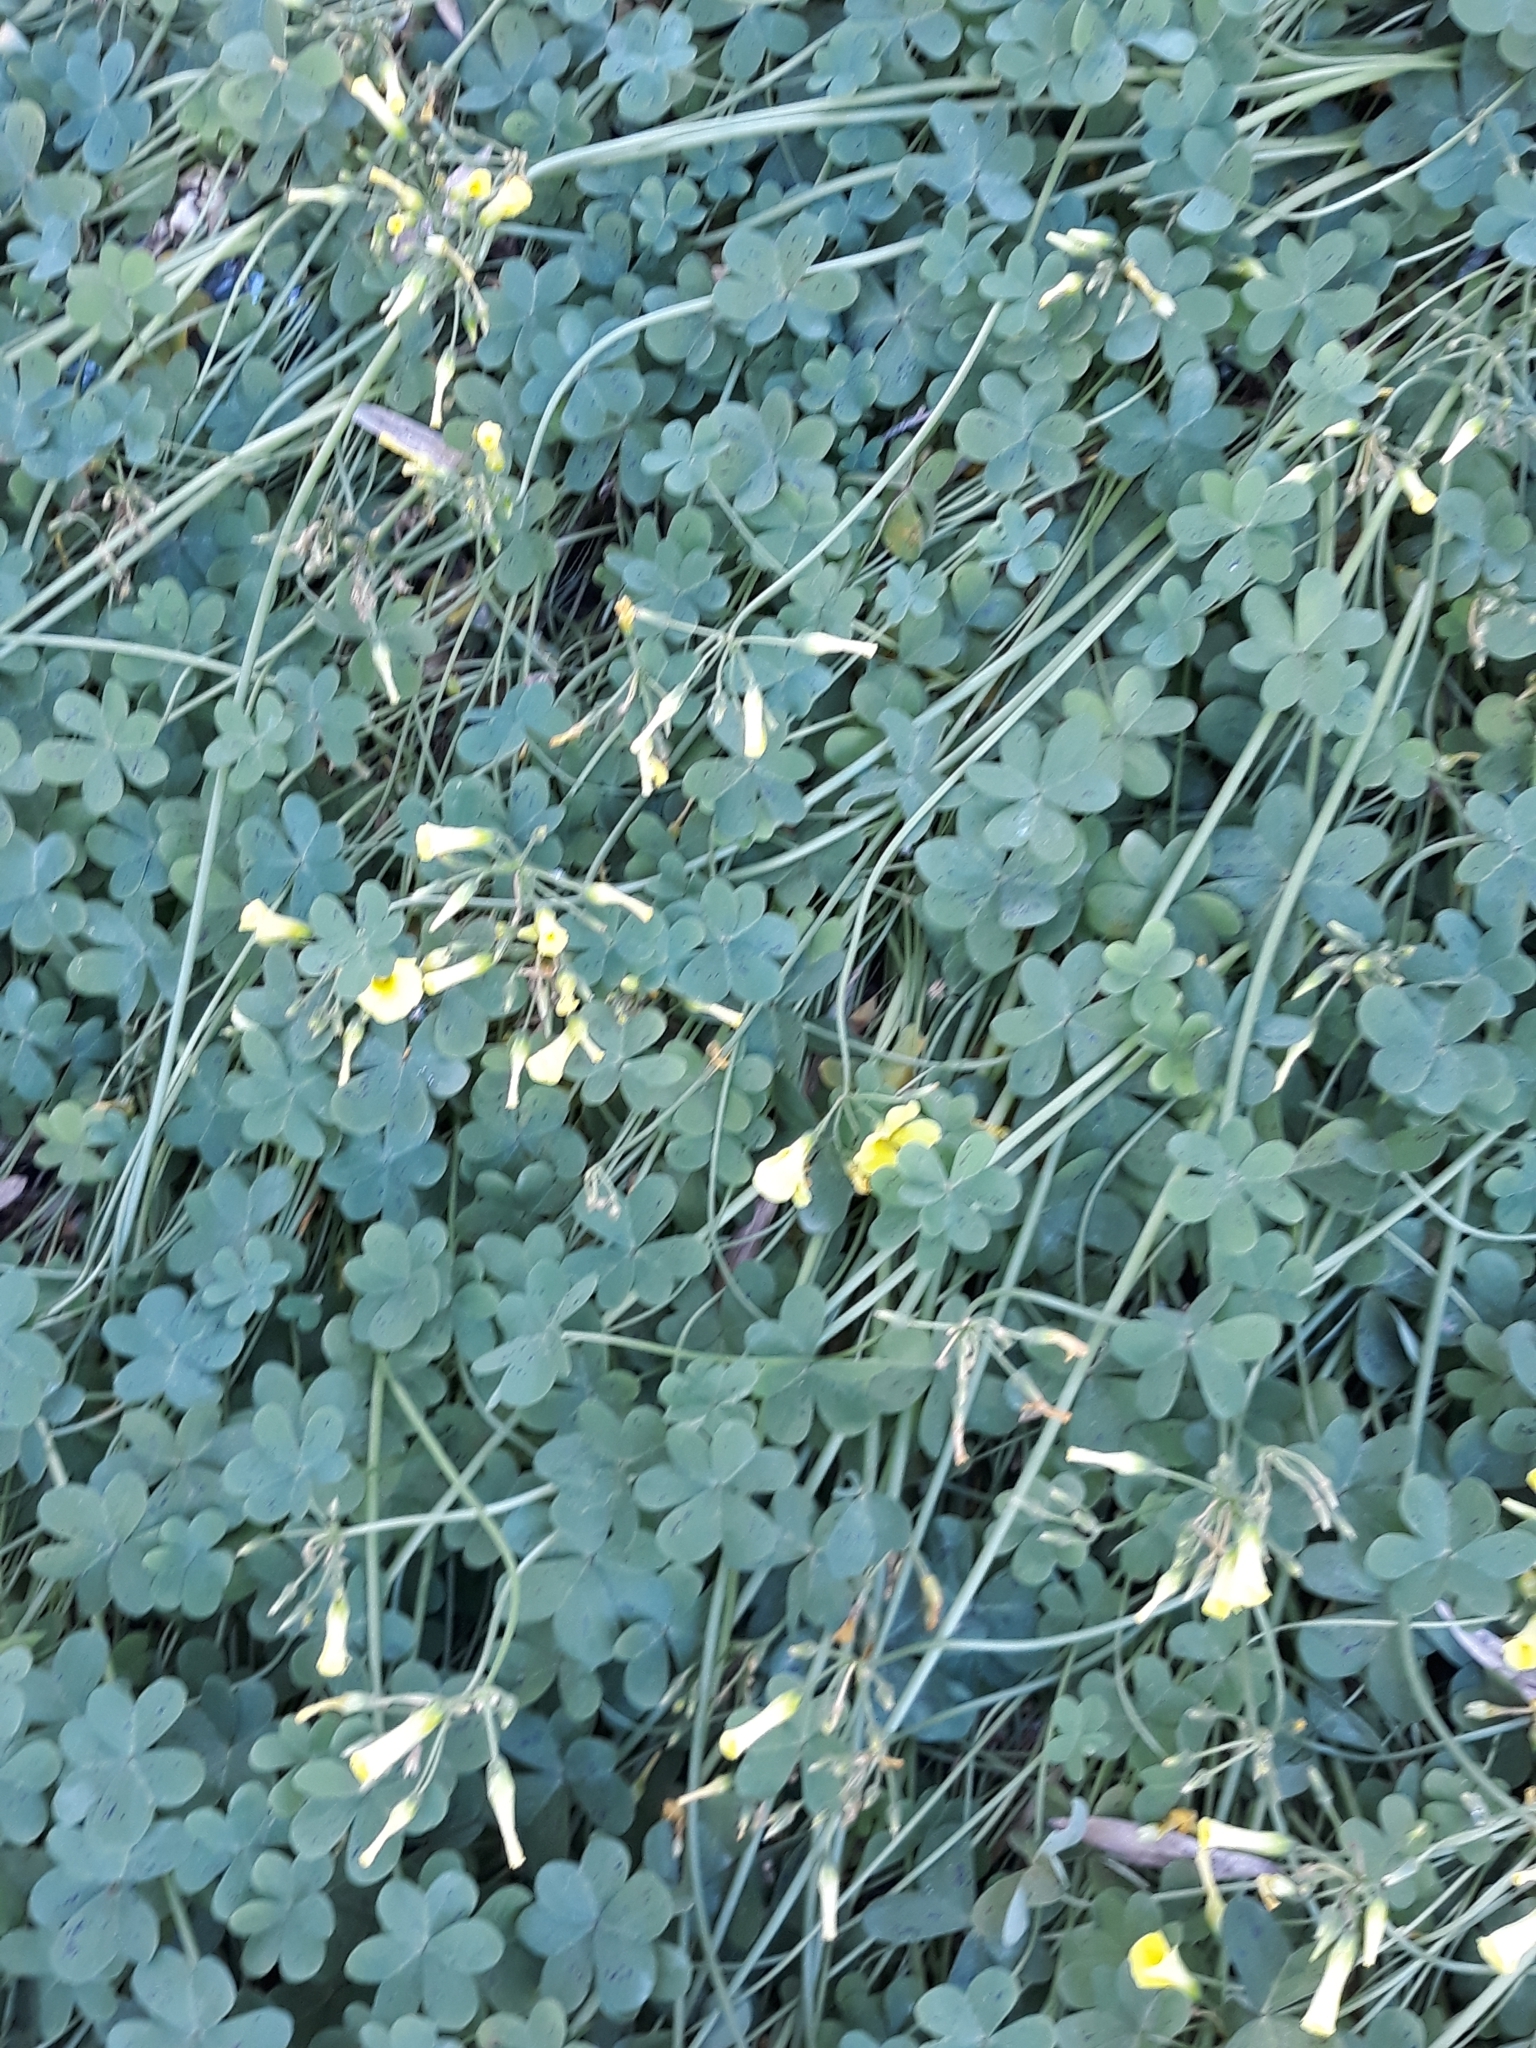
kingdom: Plantae
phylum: Tracheophyta
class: Magnoliopsida
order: Oxalidales
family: Oxalidaceae
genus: Oxalis
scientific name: Oxalis pes-caprae
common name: Bermuda-buttercup
